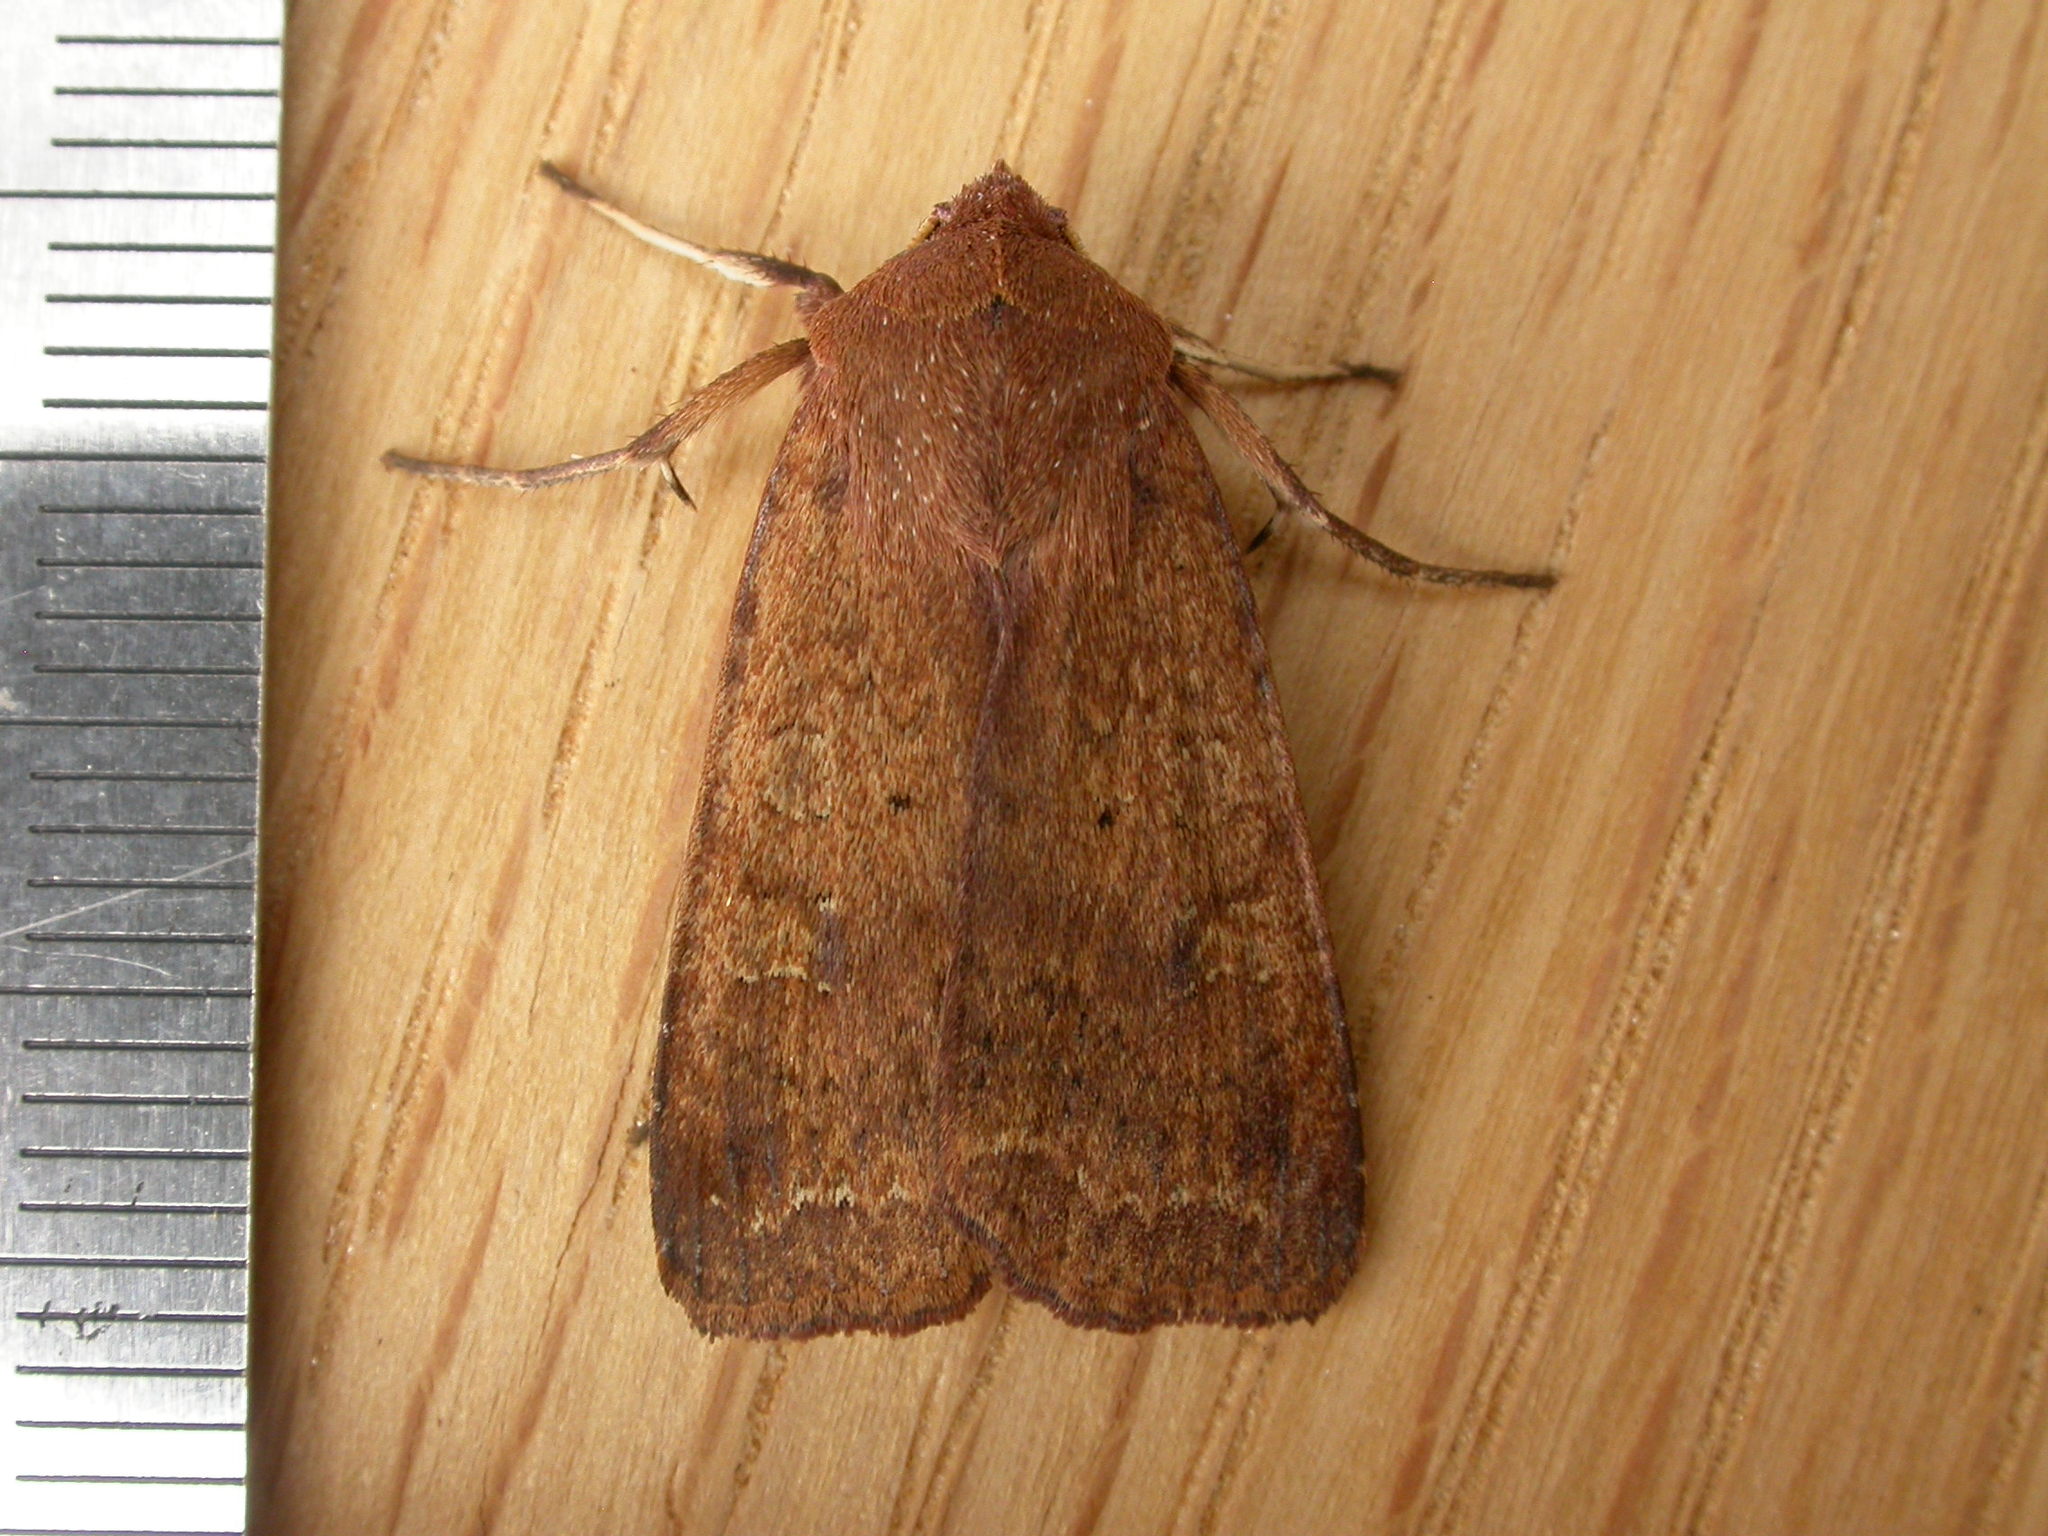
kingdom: Animalia
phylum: Arthropoda
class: Insecta
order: Lepidoptera
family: Noctuidae
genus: Diarsia
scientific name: Diarsia intermixta
